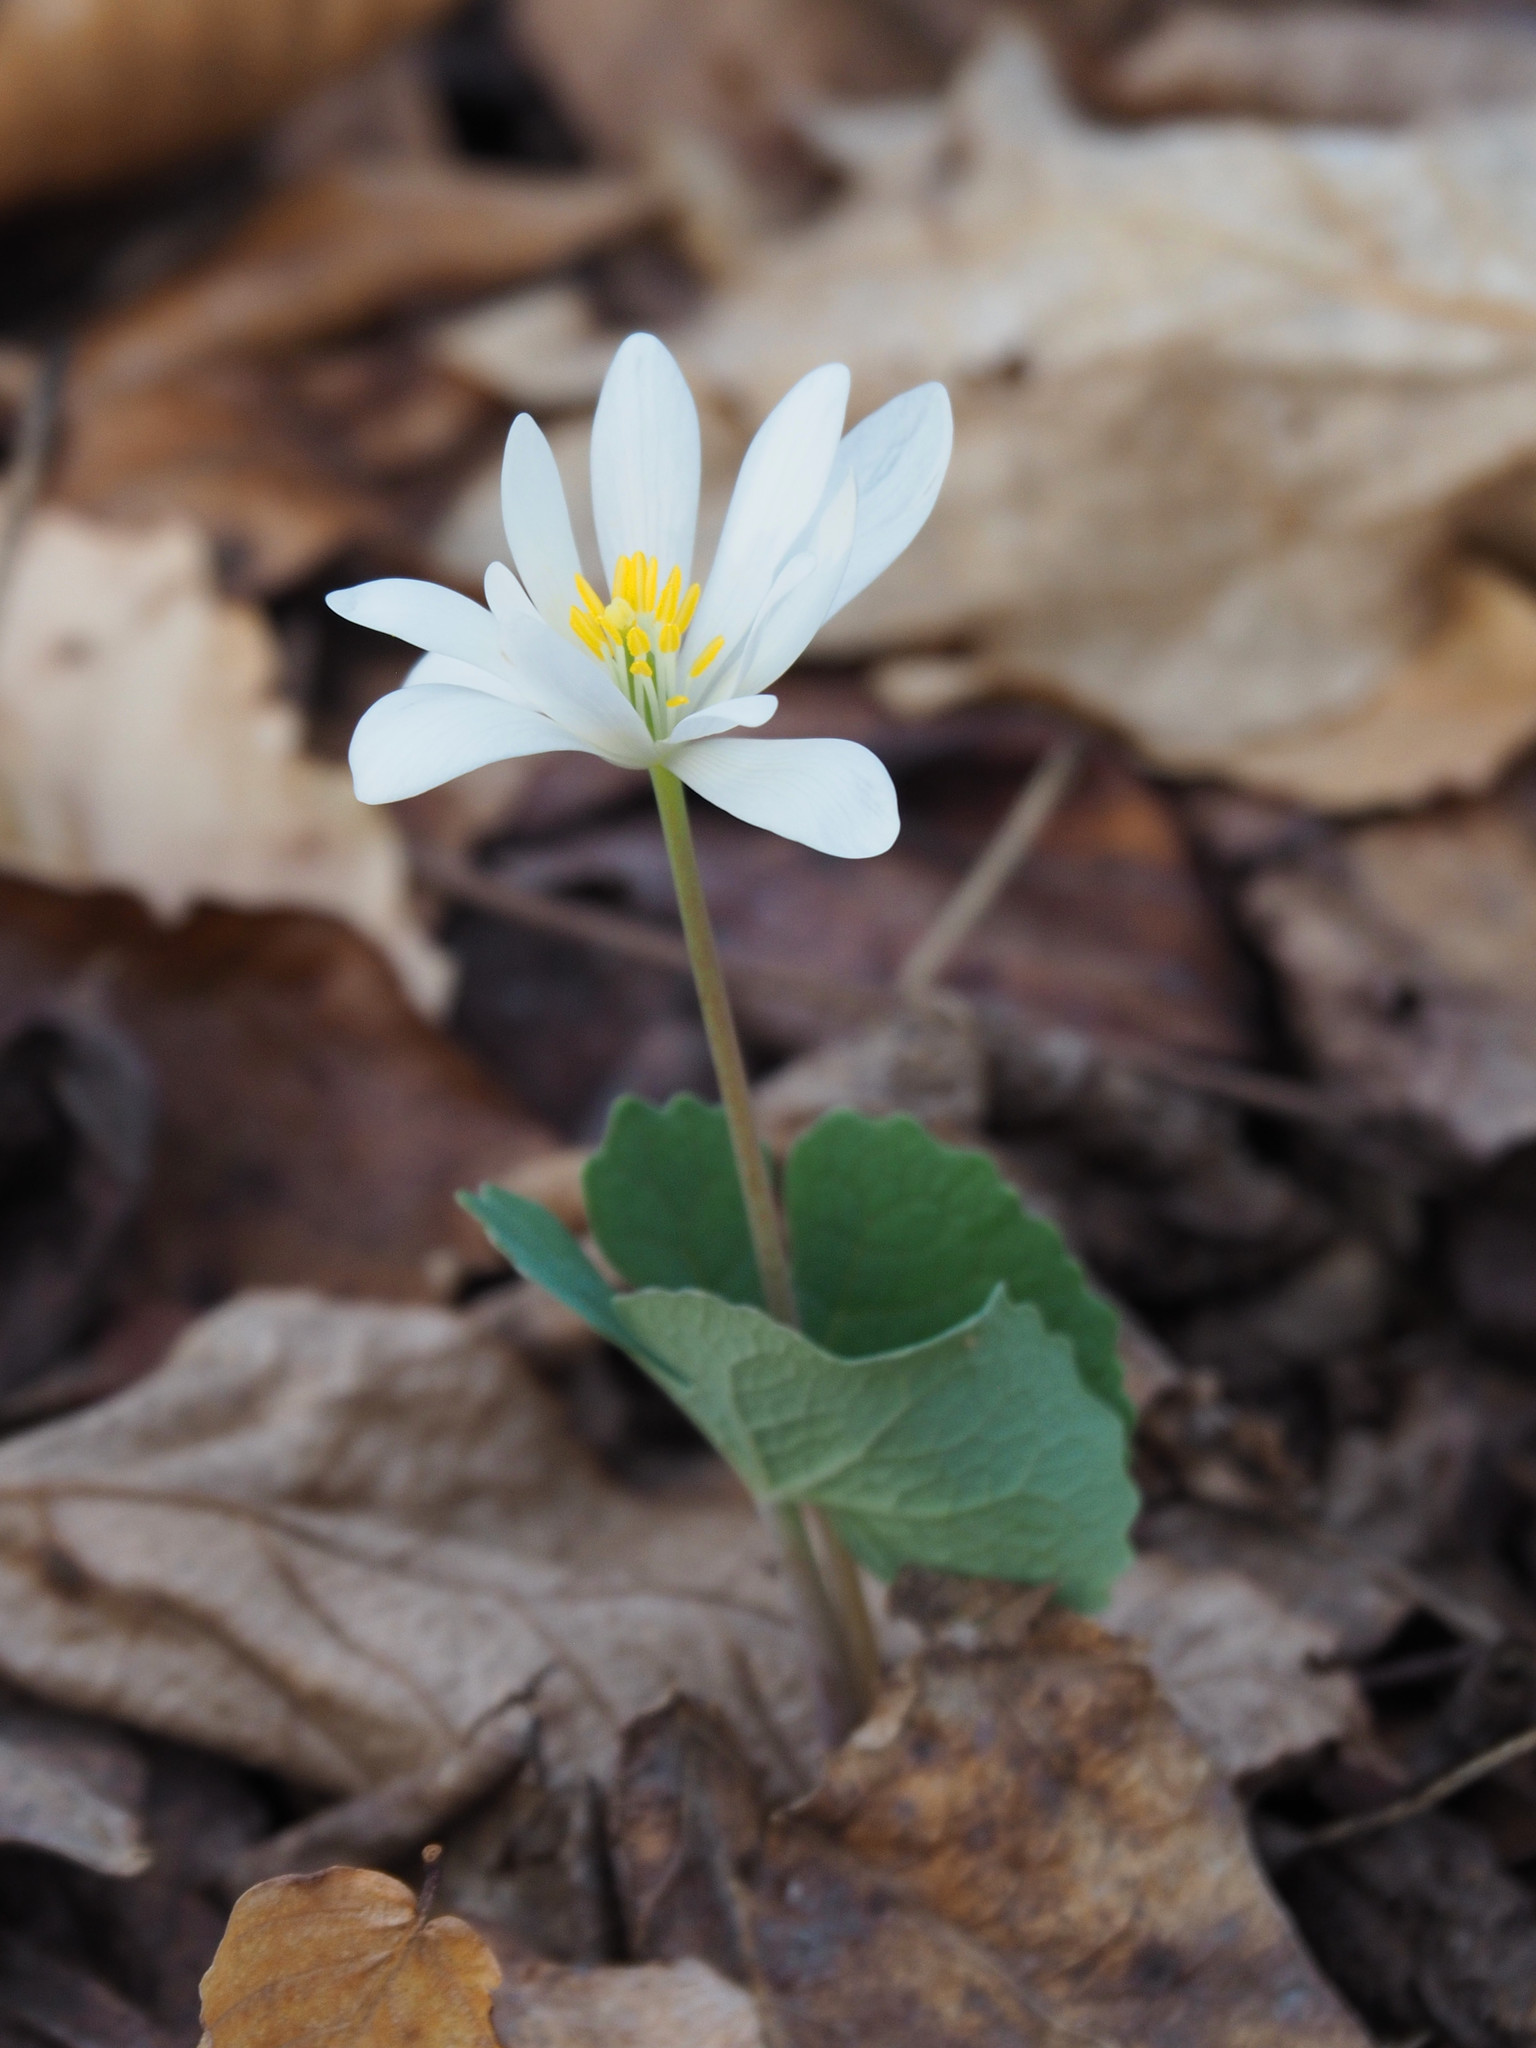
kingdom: Plantae
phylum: Tracheophyta
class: Magnoliopsida
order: Ranunculales
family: Papaveraceae
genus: Sanguinaria
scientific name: Sanguinaria canadensis
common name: Bloodroot
